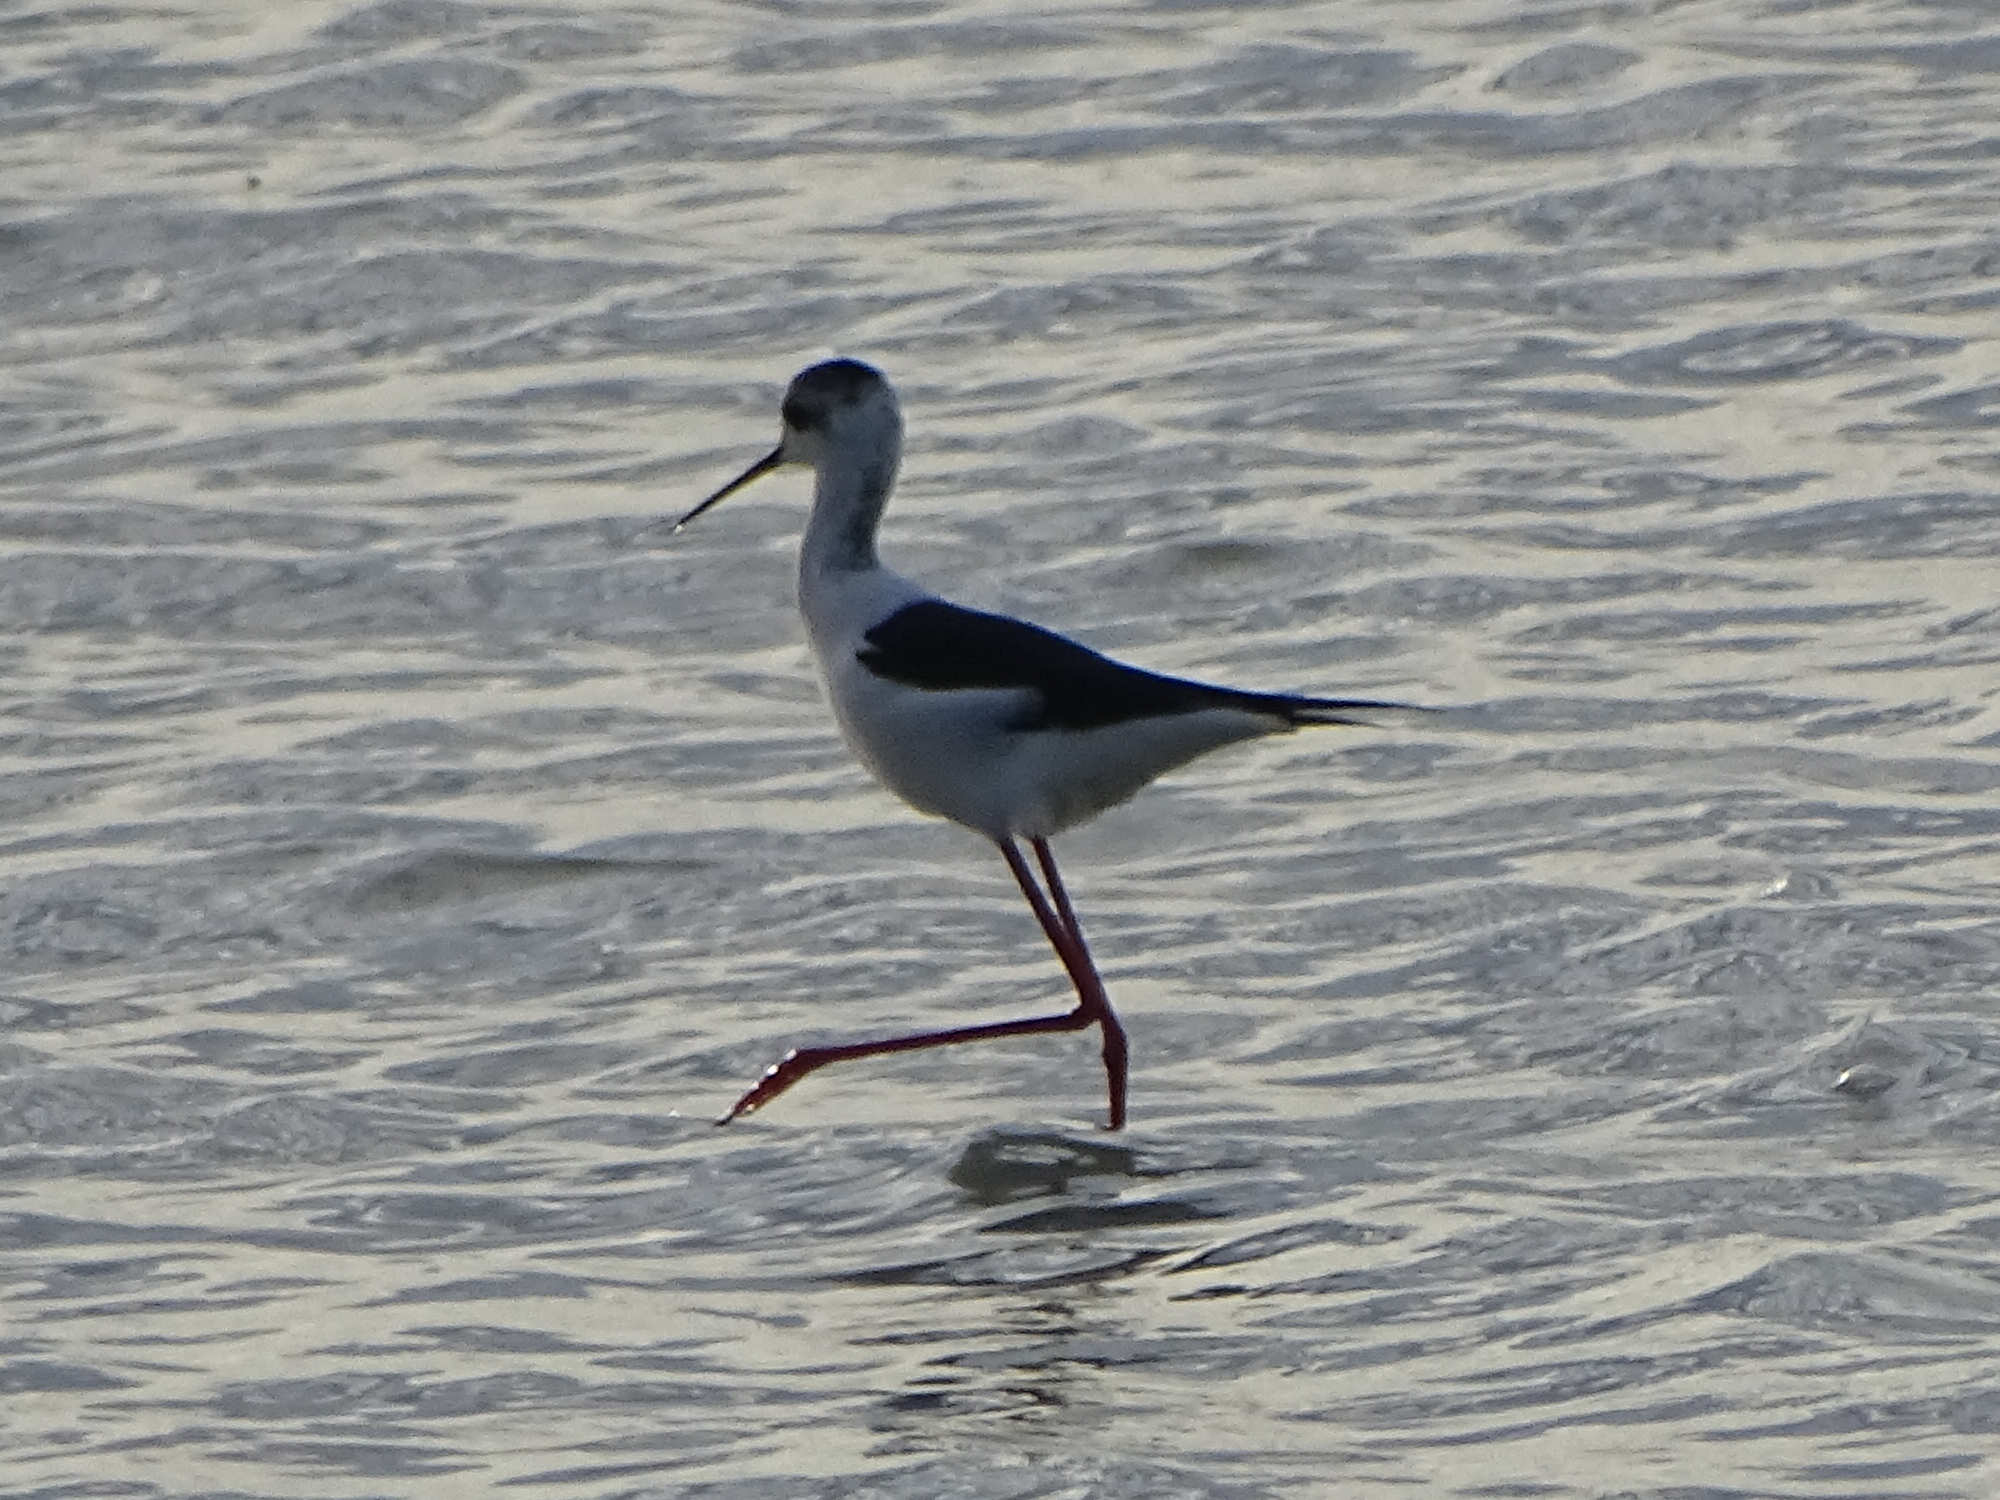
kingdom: Animalia
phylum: Chordata
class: Aves
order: Charadriiformes
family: Recurvirostridae
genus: Himantopus
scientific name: Himantopus himantopus
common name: Black-winged stilt
